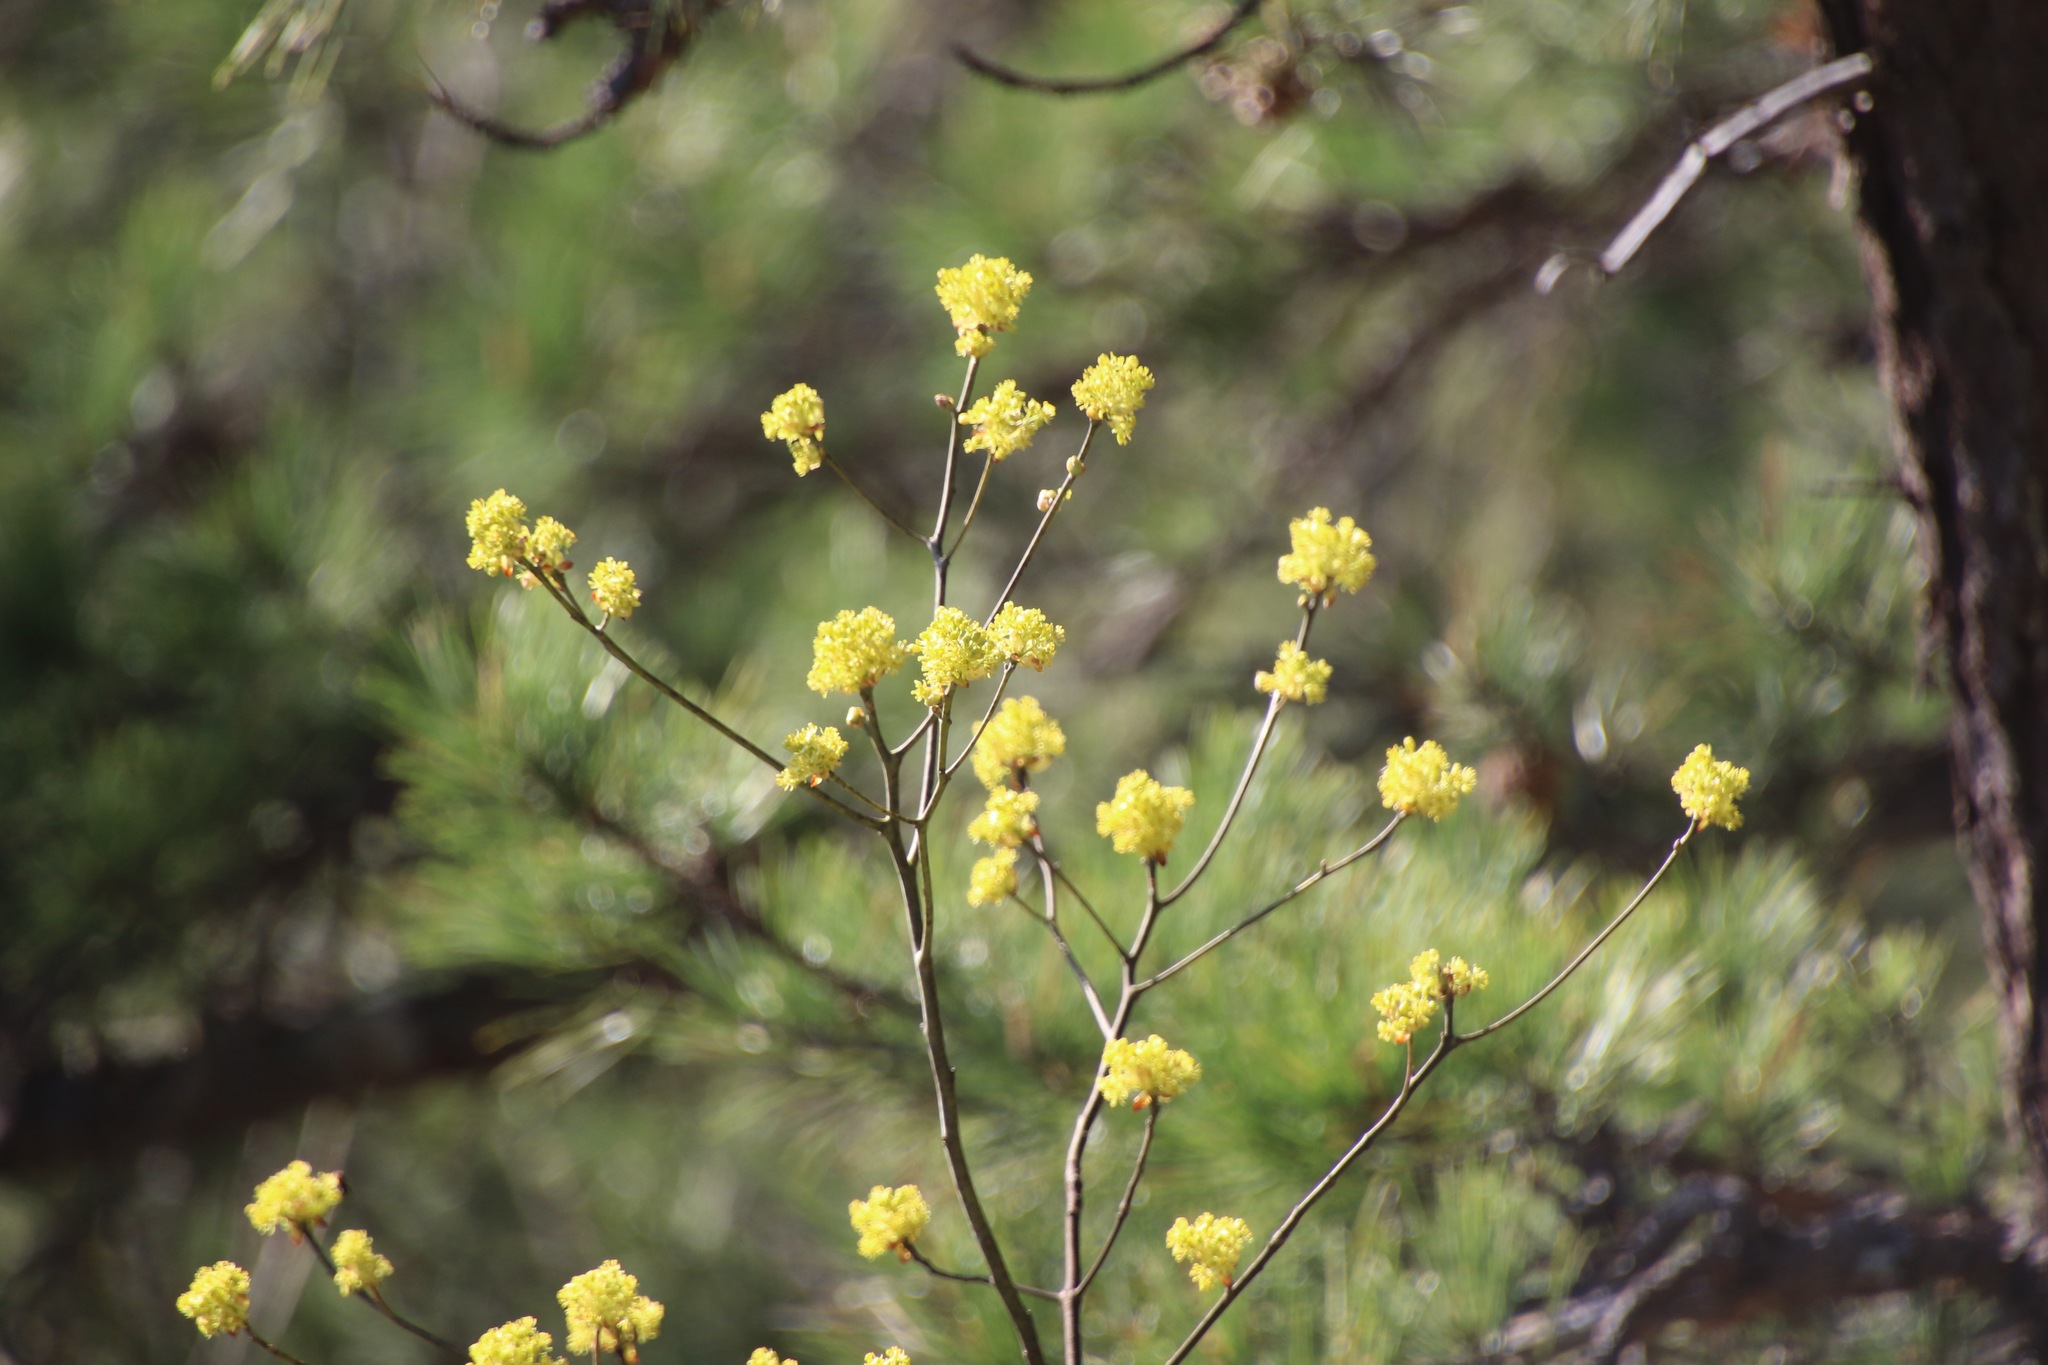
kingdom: Plantae
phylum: Tracheophyta
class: Magnoliopsida
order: Laurales
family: Lauraceae
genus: Lindera
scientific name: Lindera benzoin
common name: Spicebush
